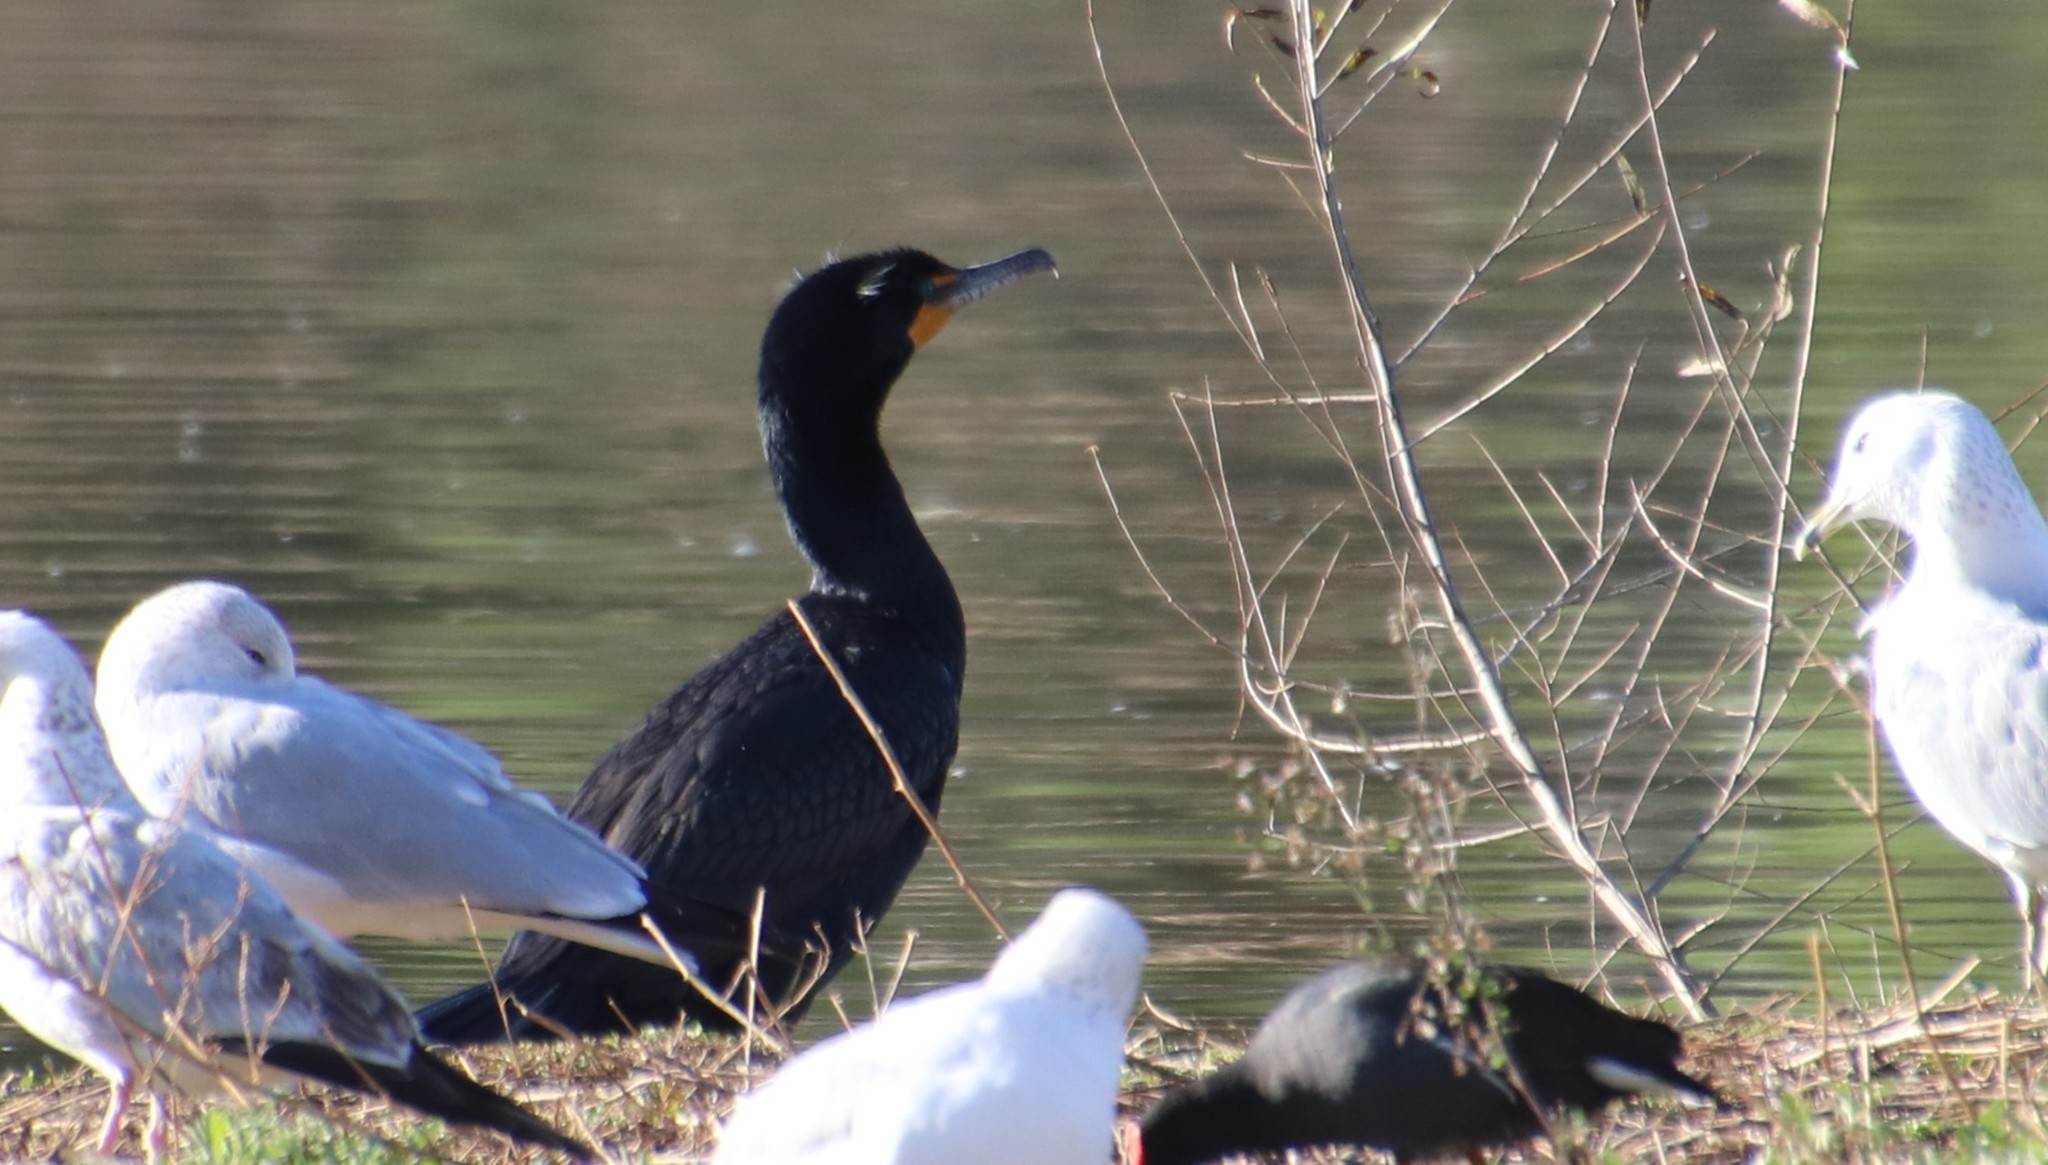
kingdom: Animalia
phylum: Chordata
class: Aves
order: Suliformes
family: Phalacrocoracidae
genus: Phalacrocorax
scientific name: Phalacrocorax auritus
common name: Double-crested cormorant
